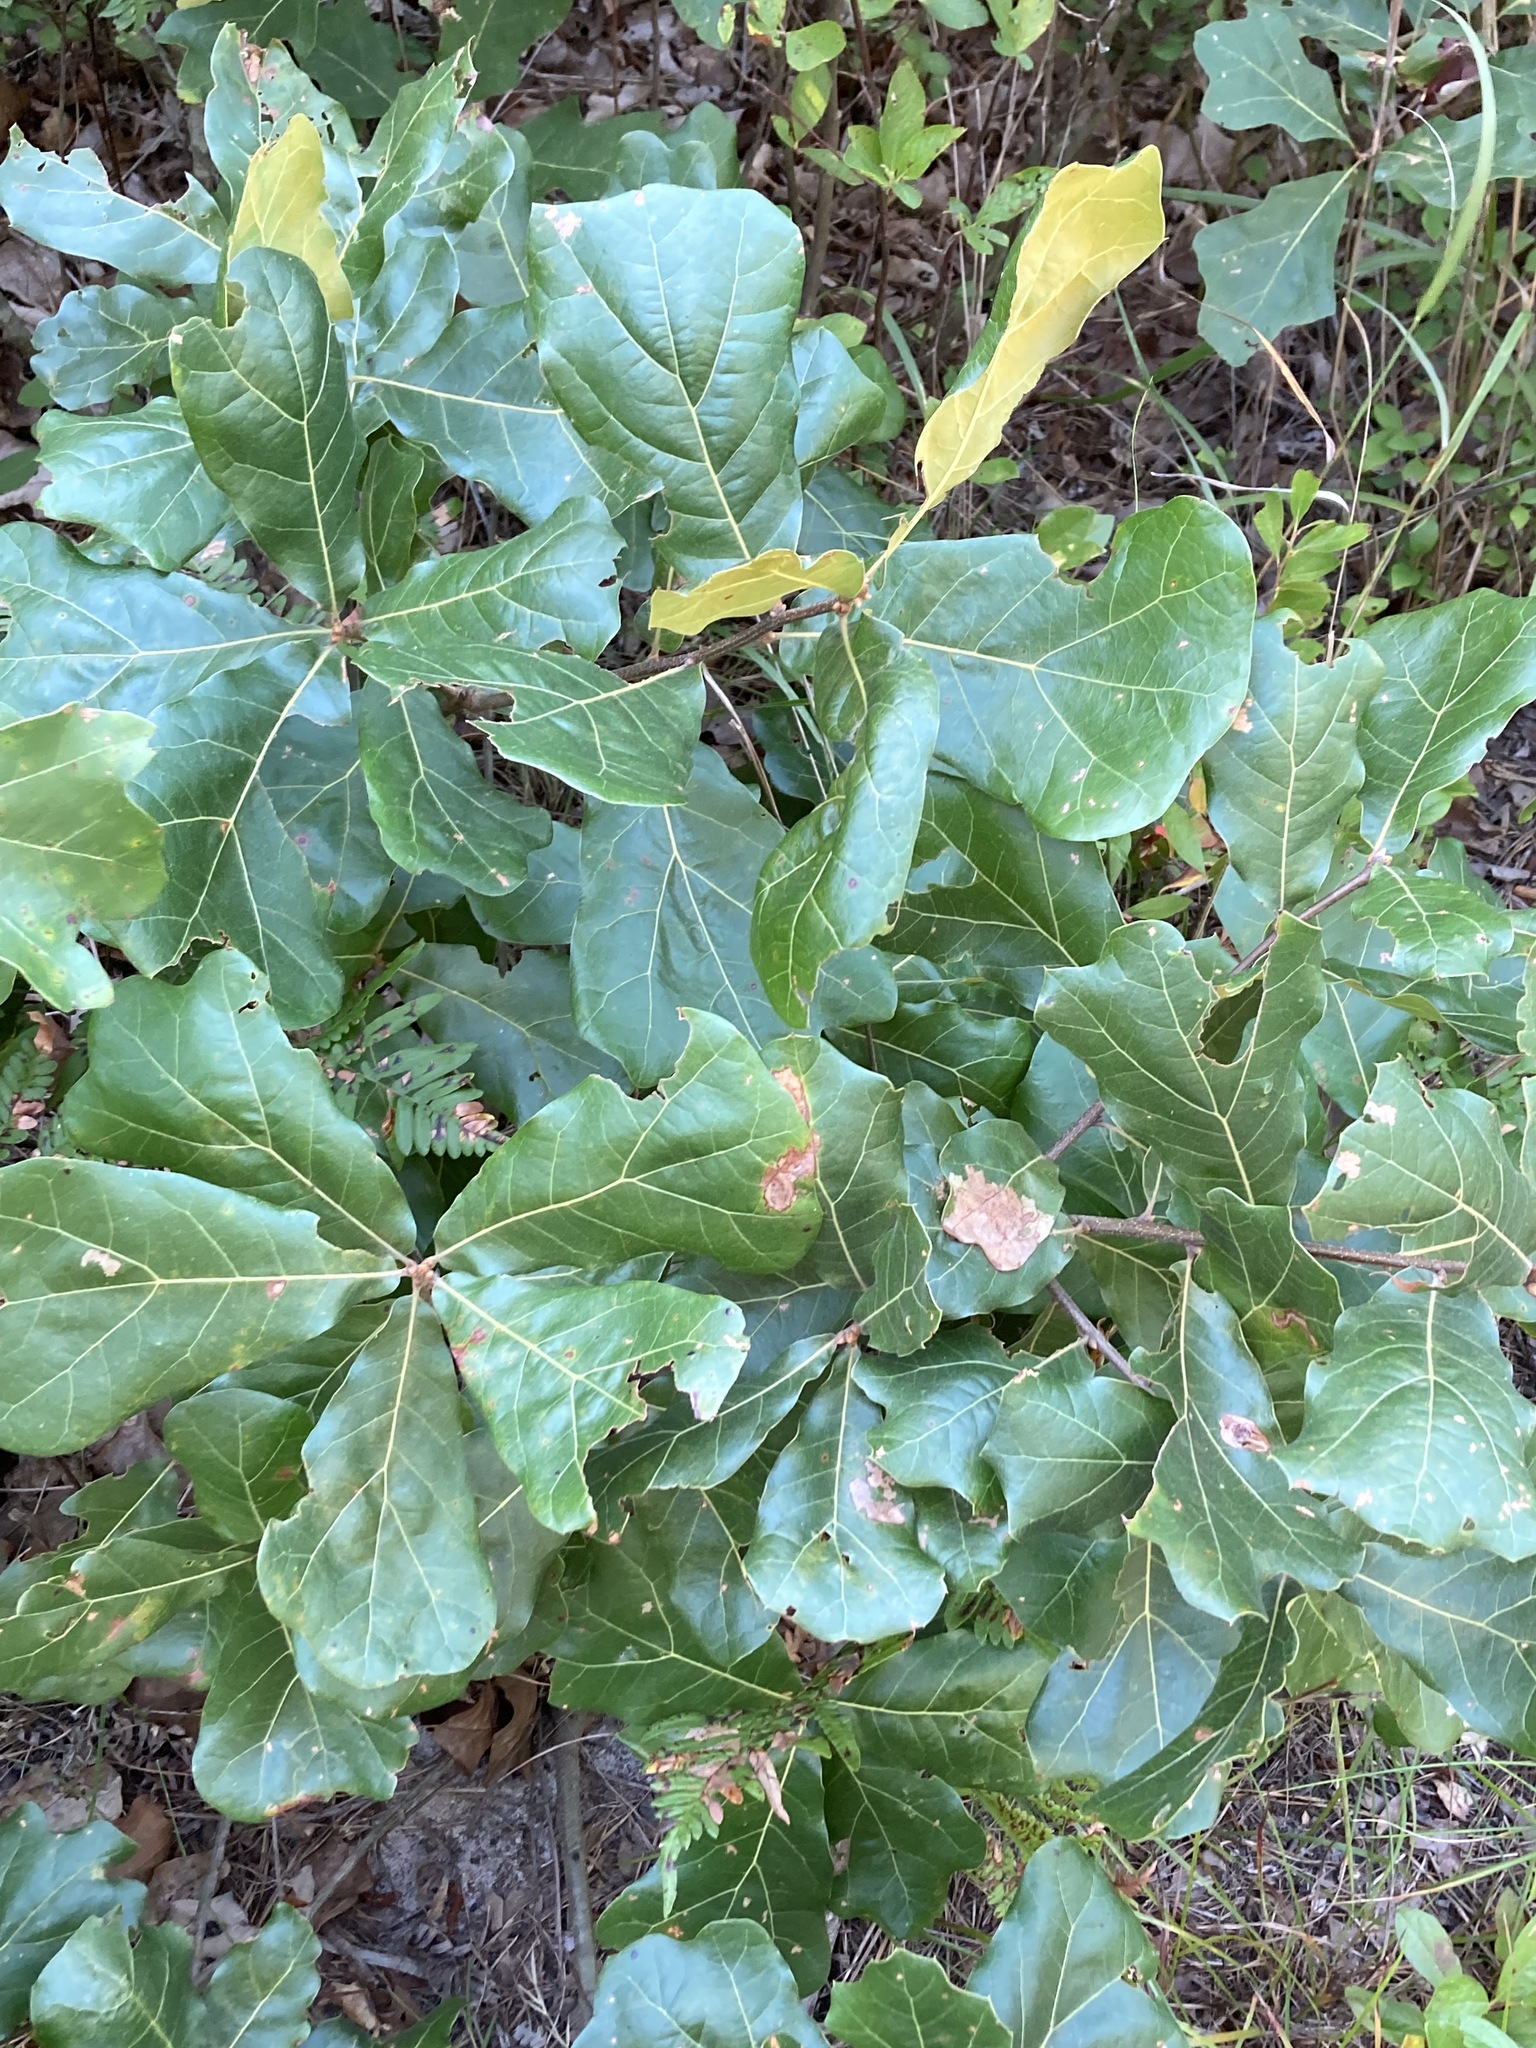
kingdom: Plantae
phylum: Tracheophyta
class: Magnoliopsida
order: Fagales
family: Fagaceae
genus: Quercus
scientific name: Quercus marilandica
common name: Blackjack oak
